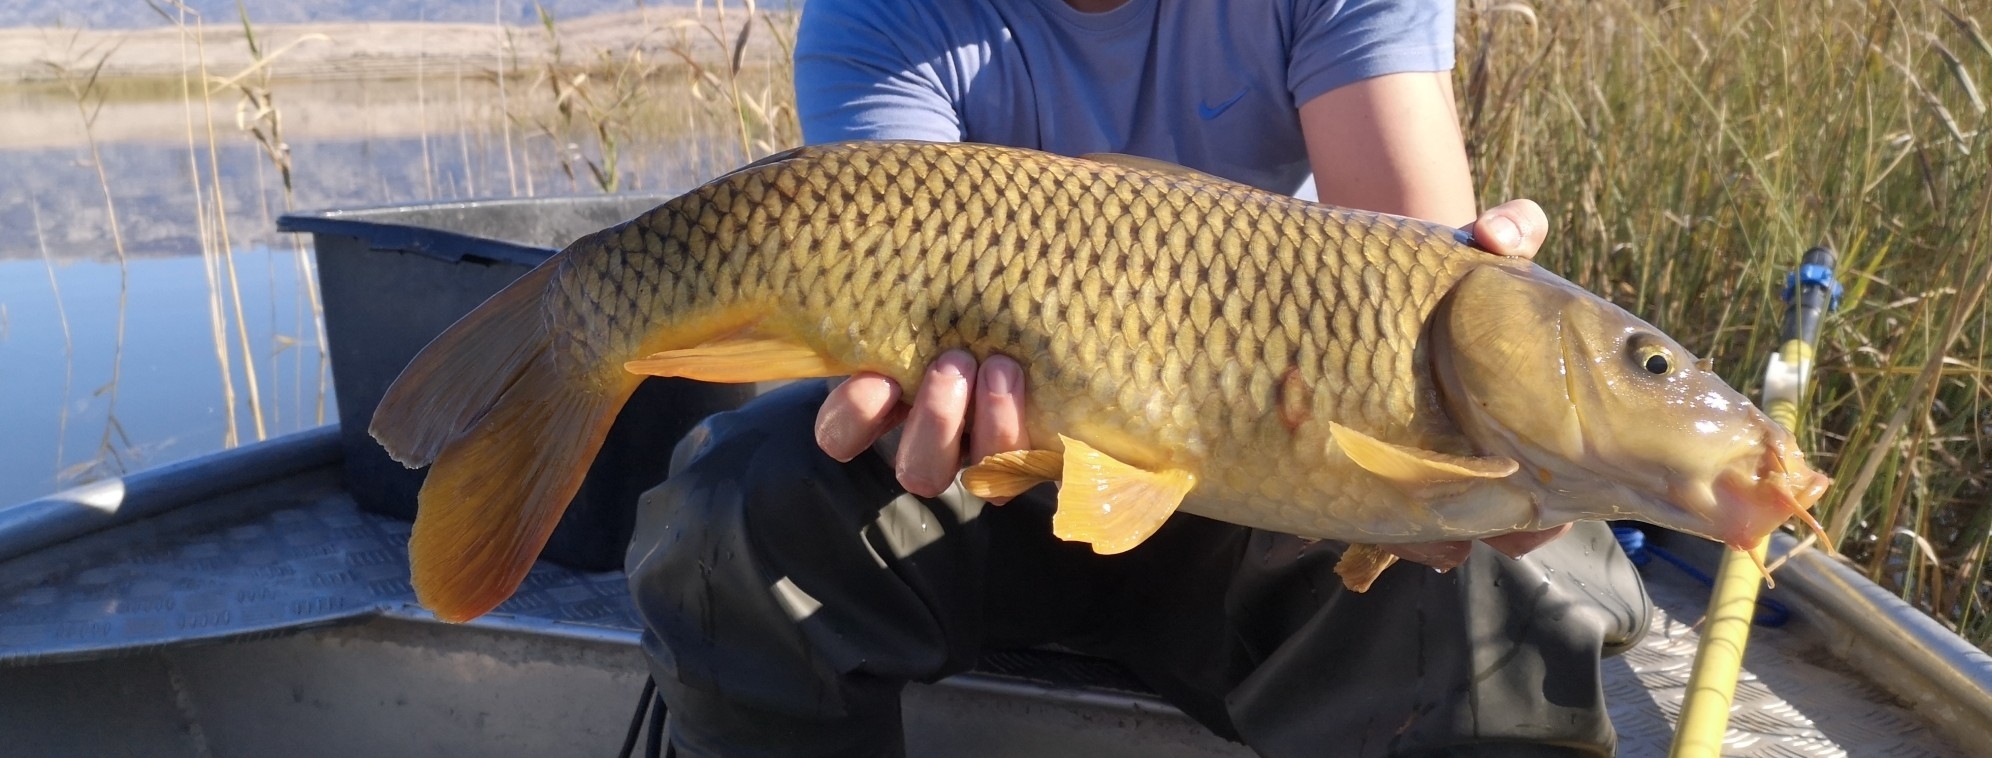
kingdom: Animalia
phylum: Chordata
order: Cypriniformes
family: Cyprinidae
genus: Cyprinus
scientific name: Cyprinus carpio
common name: Common carp
